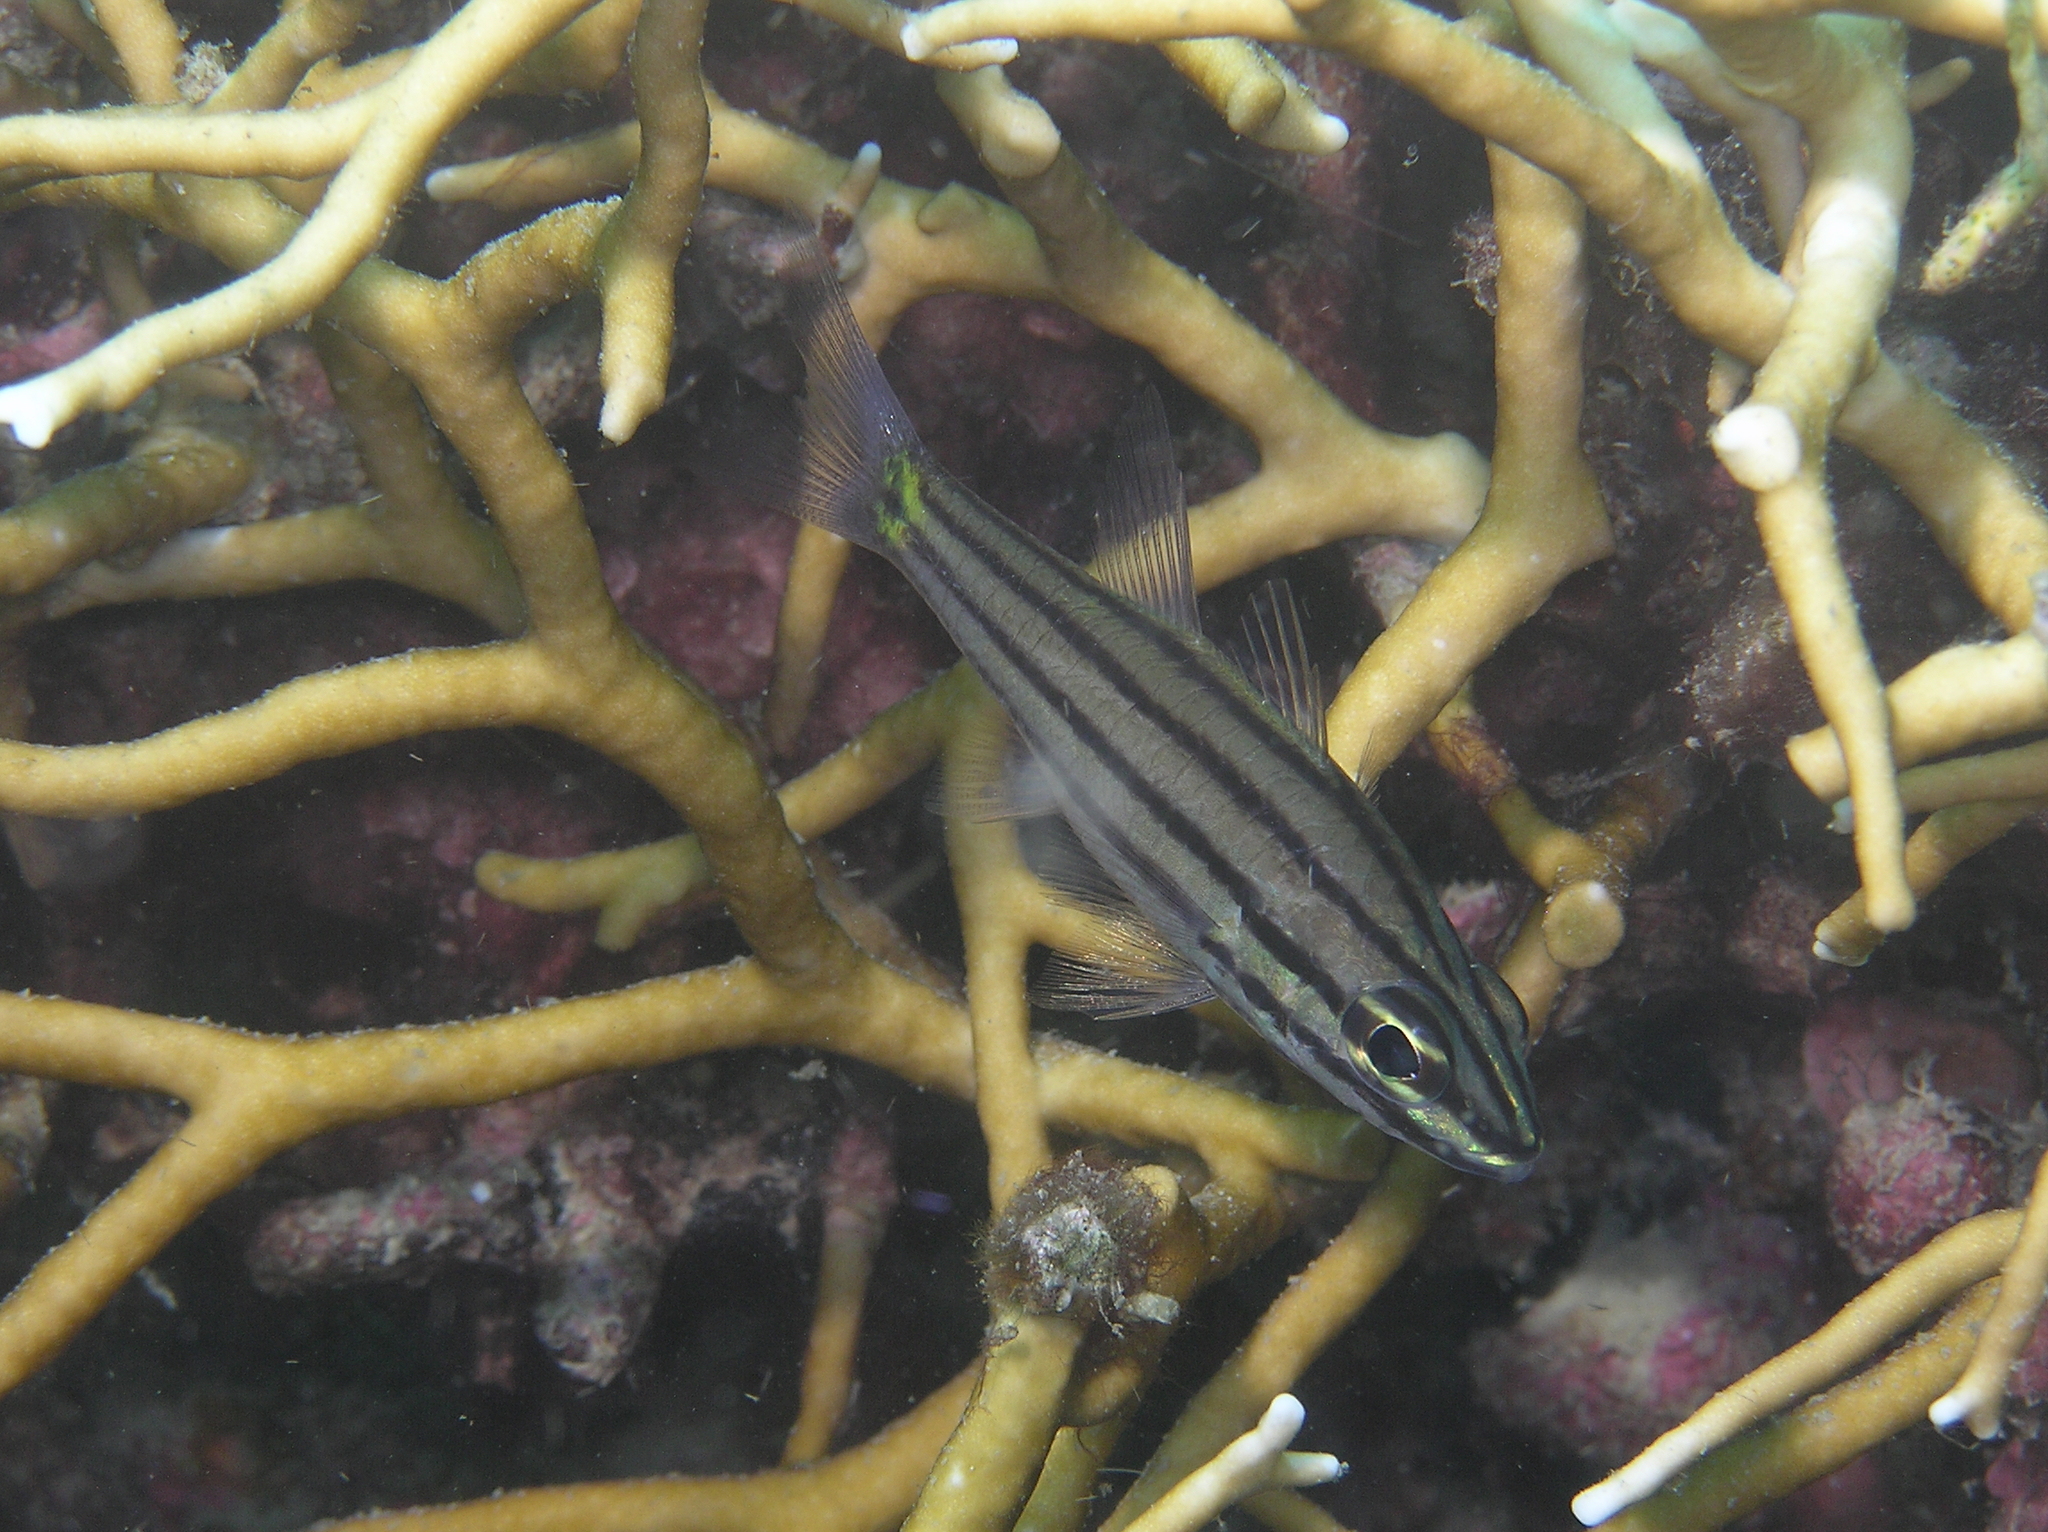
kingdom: Animalia
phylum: Chordata
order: Perciformes
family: Apogonidae
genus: Cheilodipterus
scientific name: Cheilodipterus
